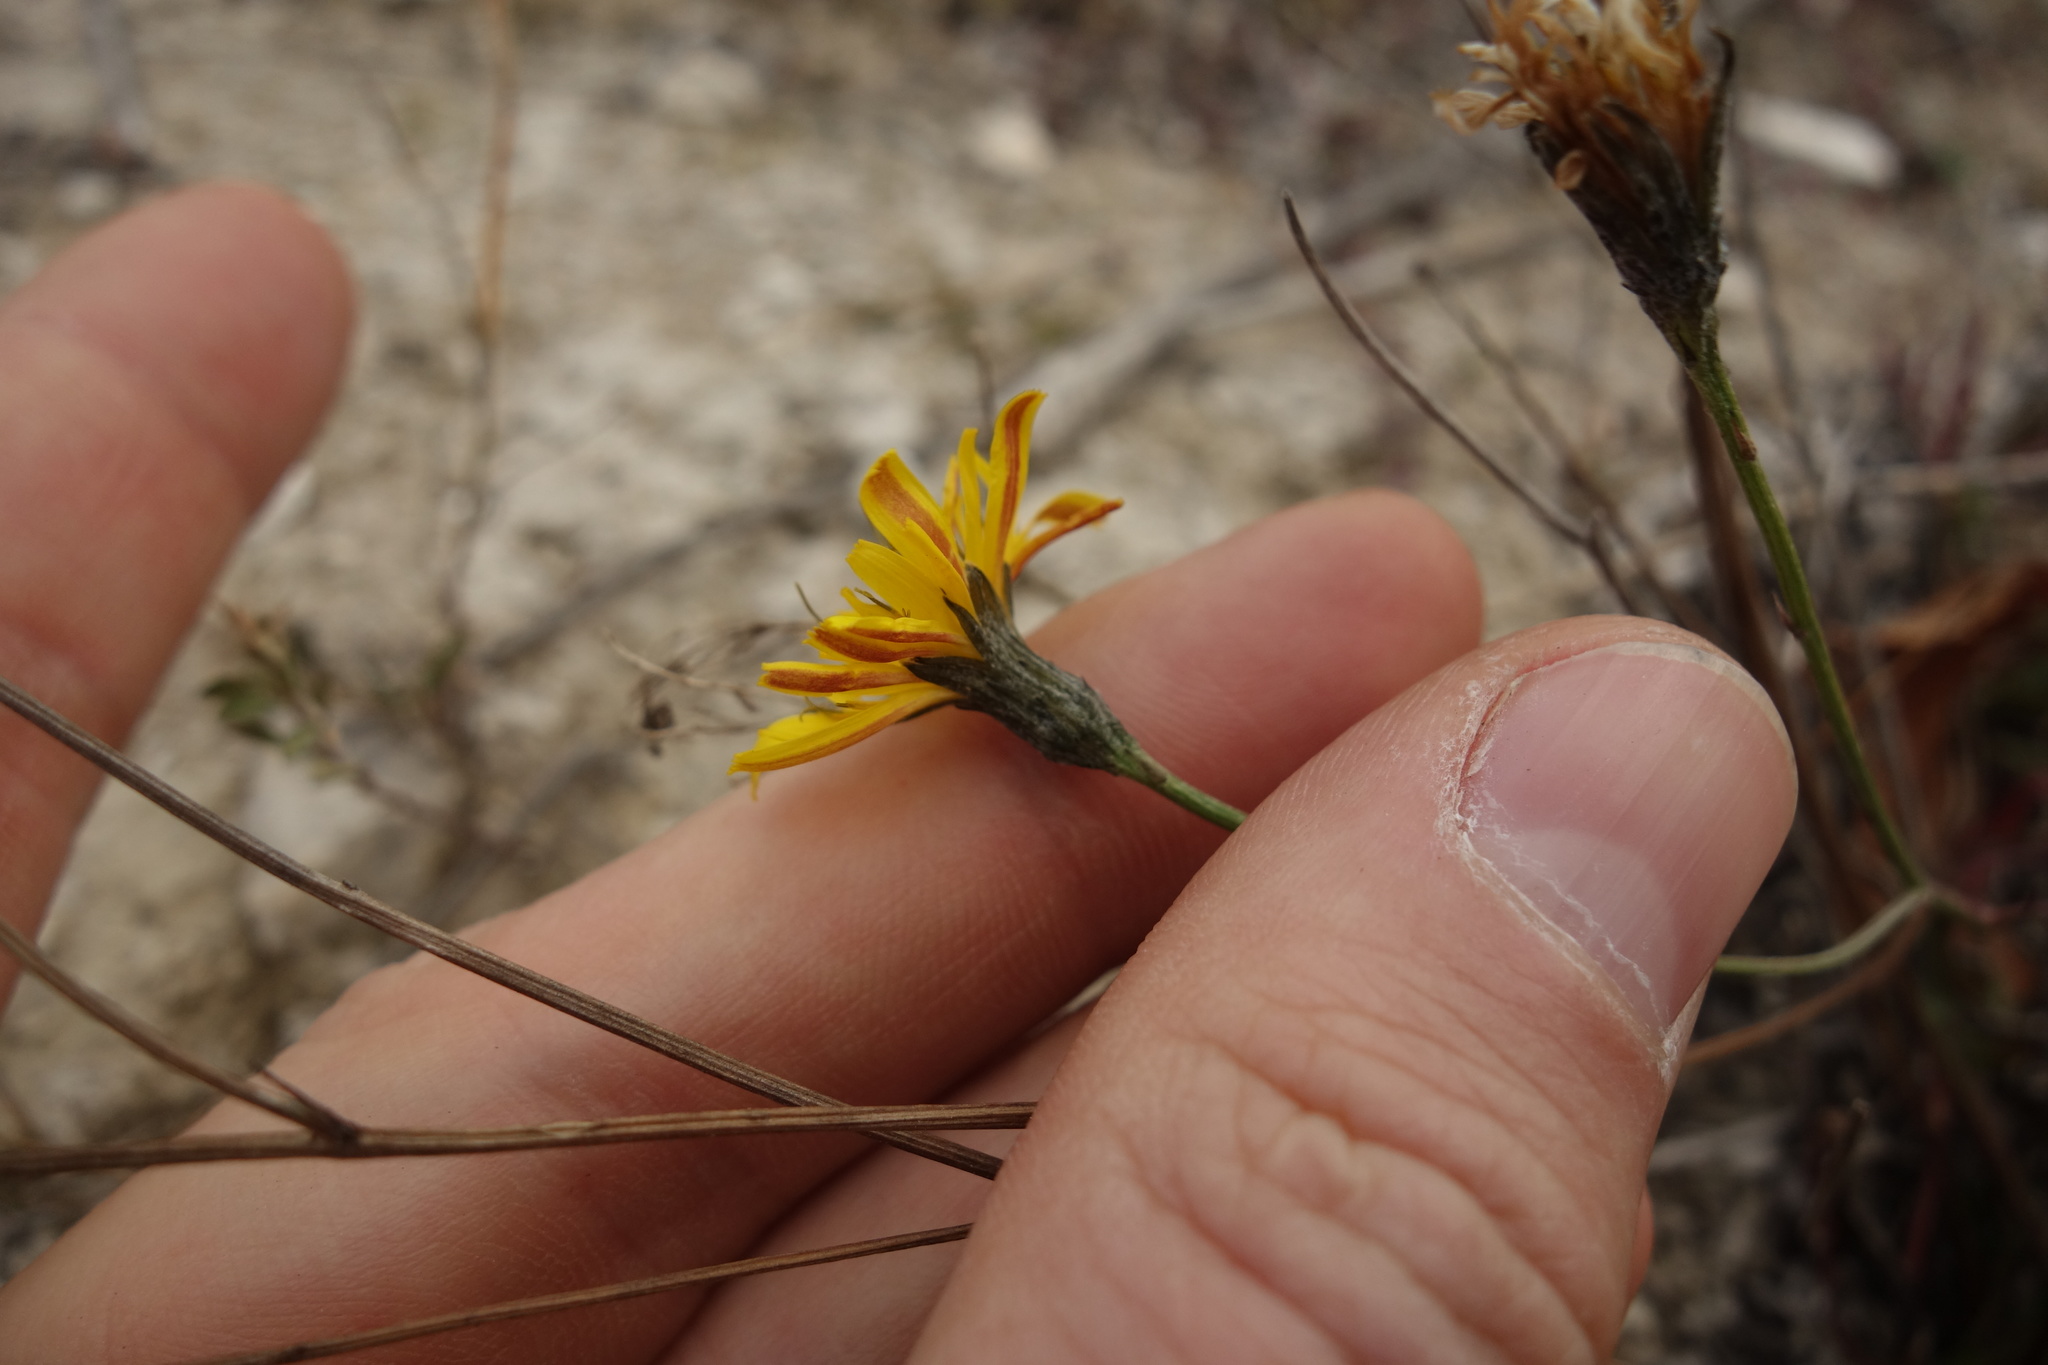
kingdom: Plantae
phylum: Tracheophyta
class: Magnoliopsida
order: Asterales
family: Asteraceae
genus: Scorzoneroides
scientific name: Scorzoneroides autumnalis
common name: Autumn hawkbit
